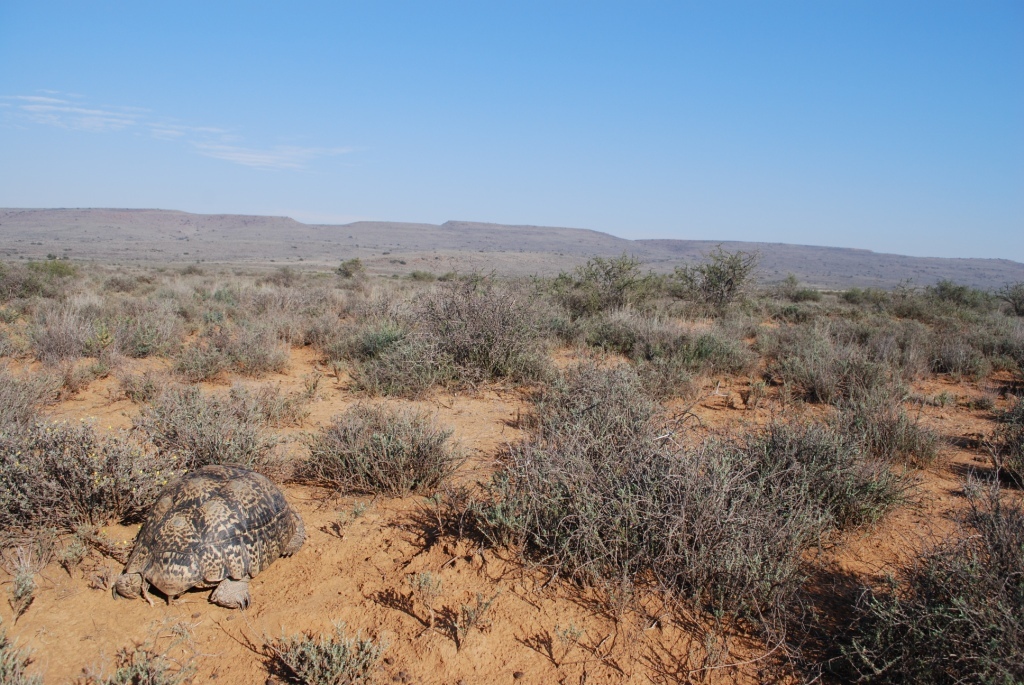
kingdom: Animalia
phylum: Chordata
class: Testudines
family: Testudinidae
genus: Stigmochelys
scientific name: Stigmochelys pardalis
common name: Leopard tortoise
